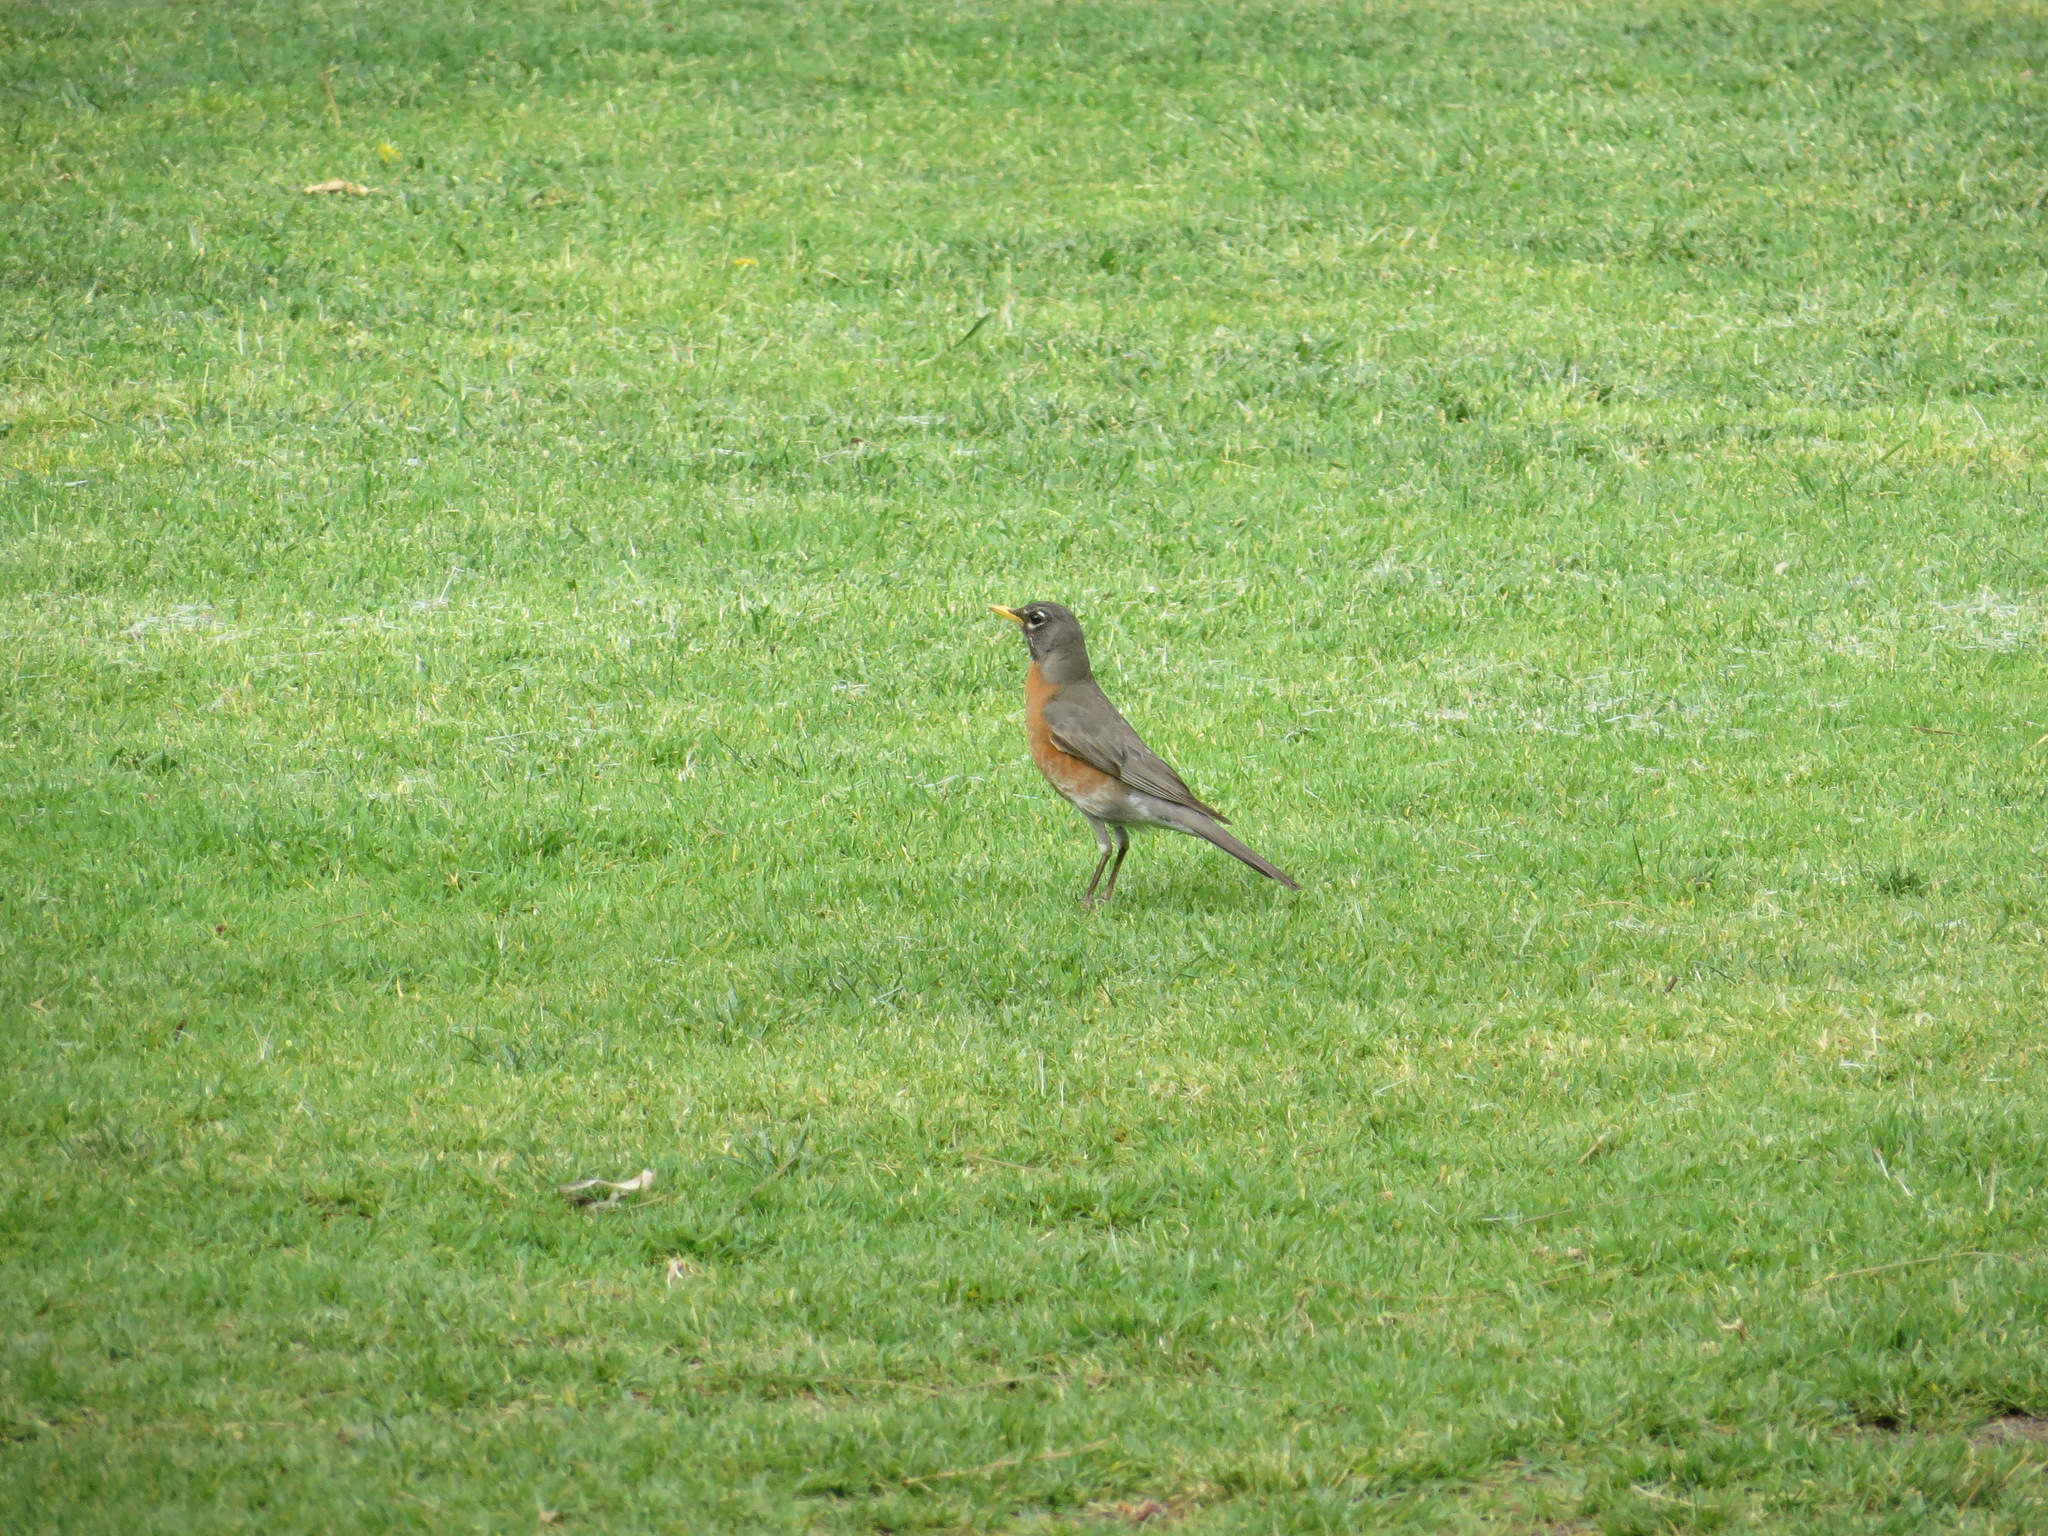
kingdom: Animalia
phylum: Chordata
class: Aves
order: Passeriformes
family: Turdidae
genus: Turdus
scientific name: Turdus migratorius
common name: American robin
